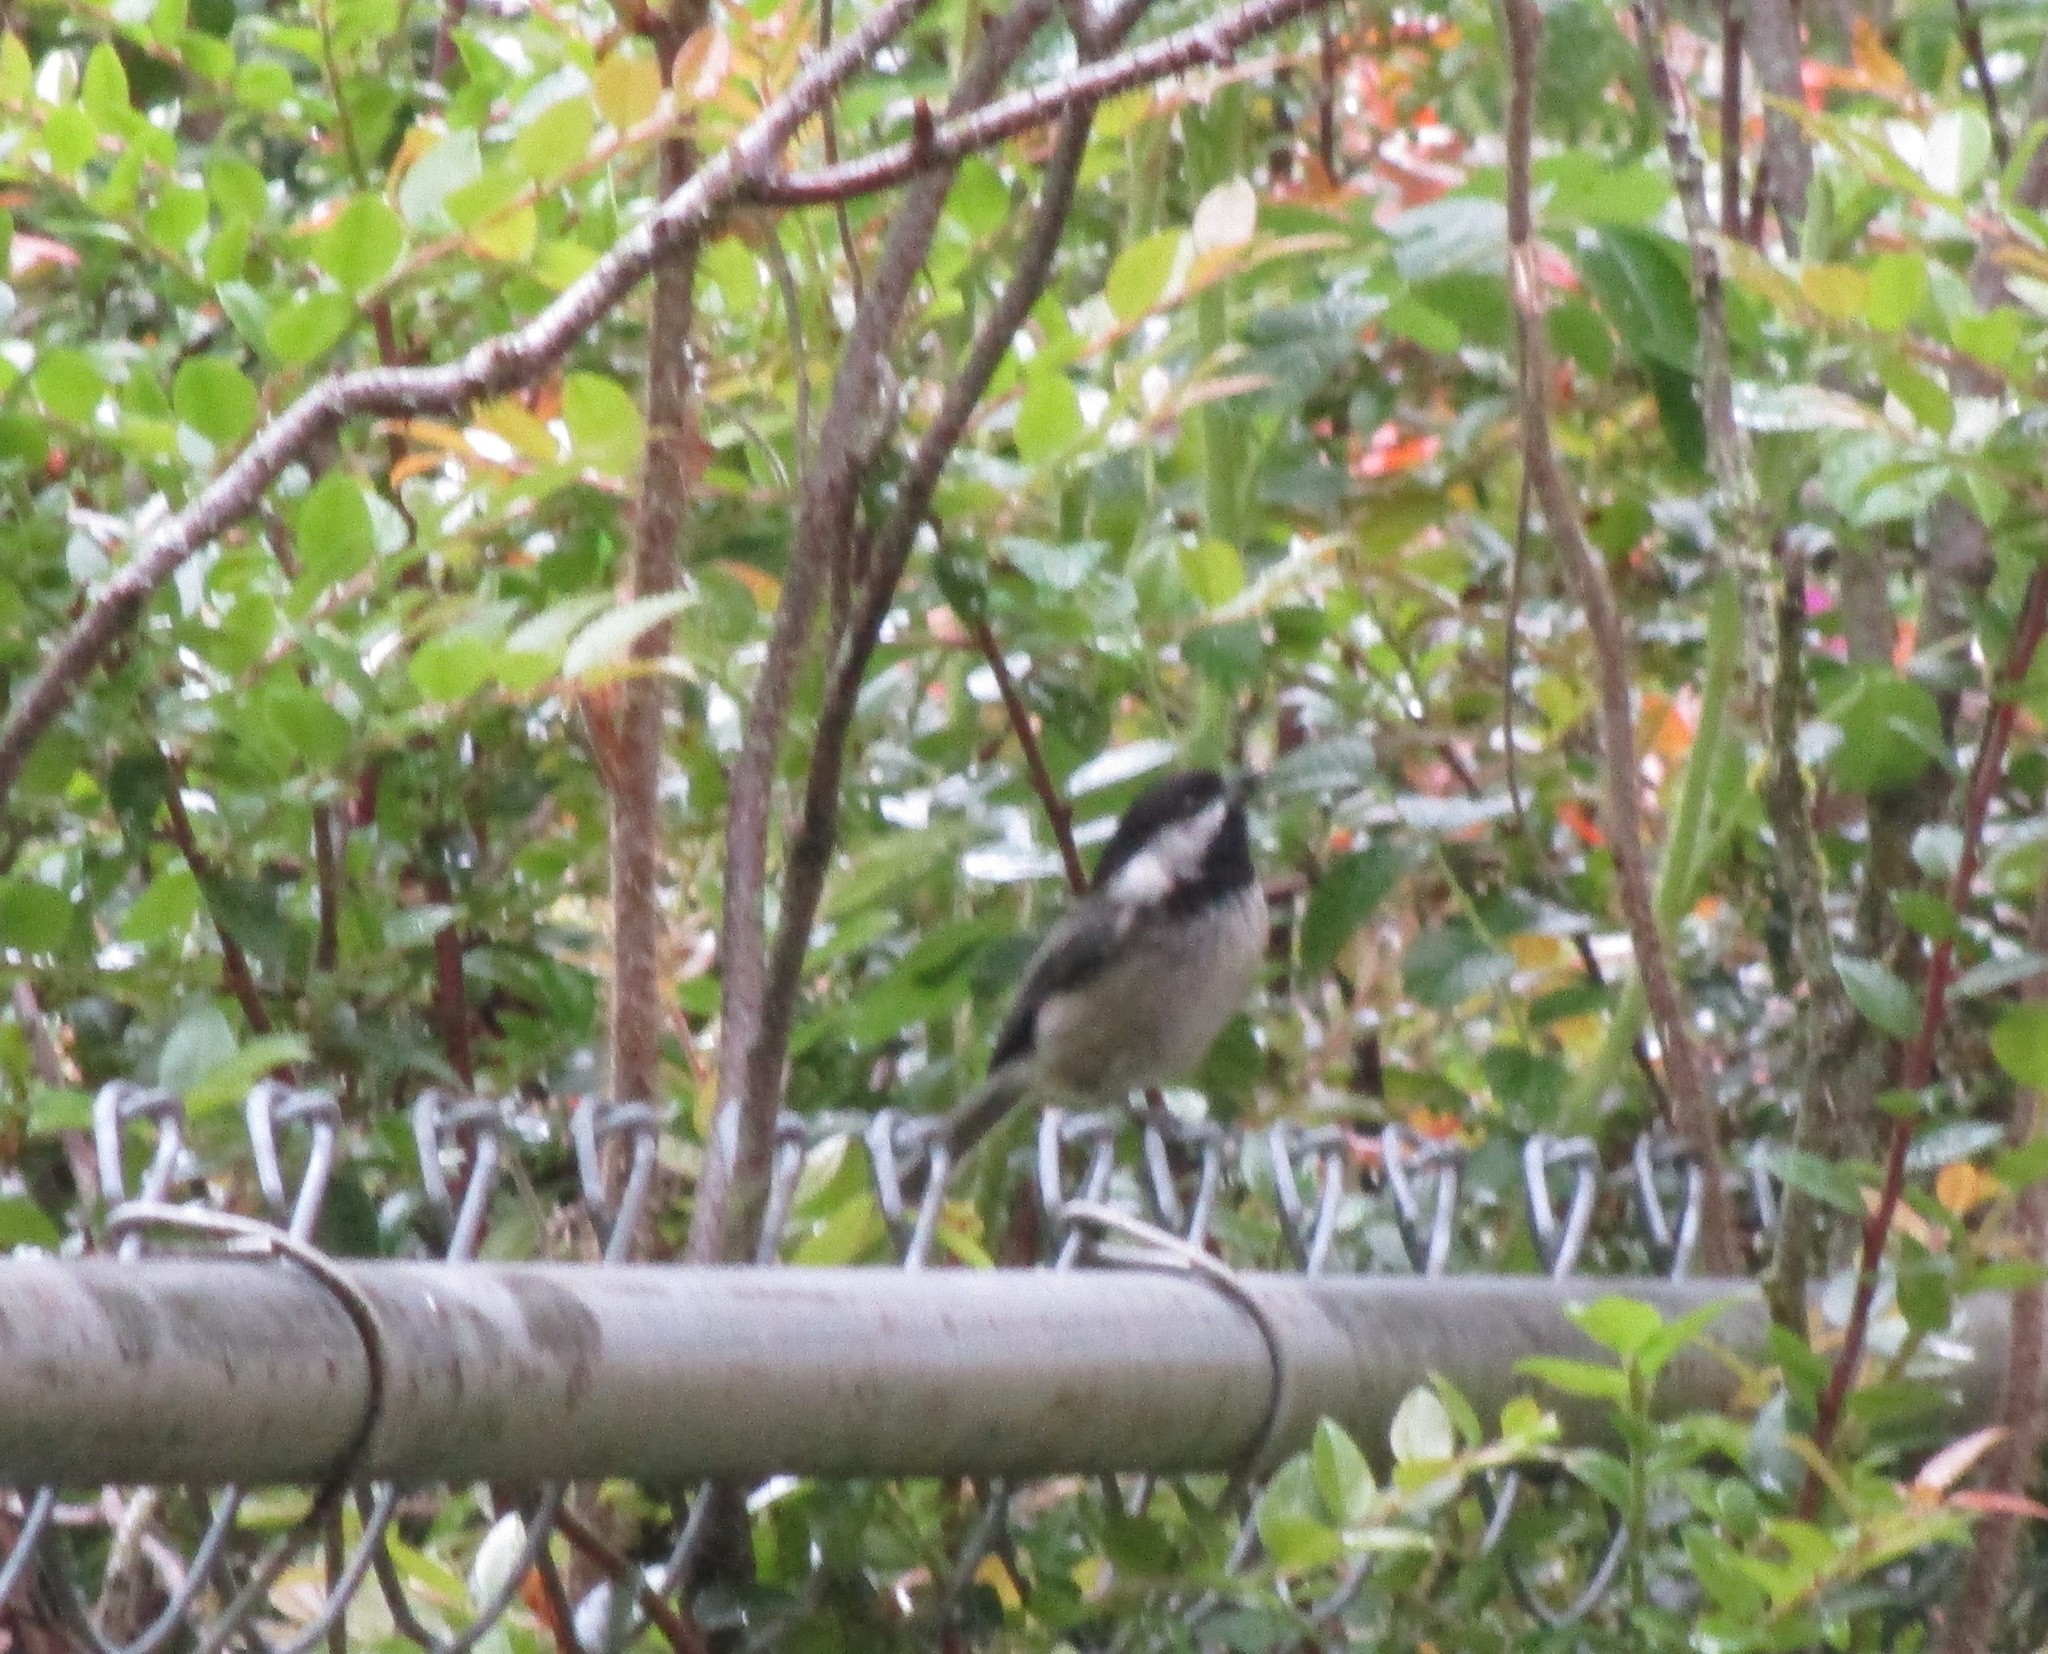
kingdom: Animalia
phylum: Chordata
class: Aves
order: Passeriformes
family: Paridae
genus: Poecile
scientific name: Poecile atricapillus
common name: Black-capped chickadee
